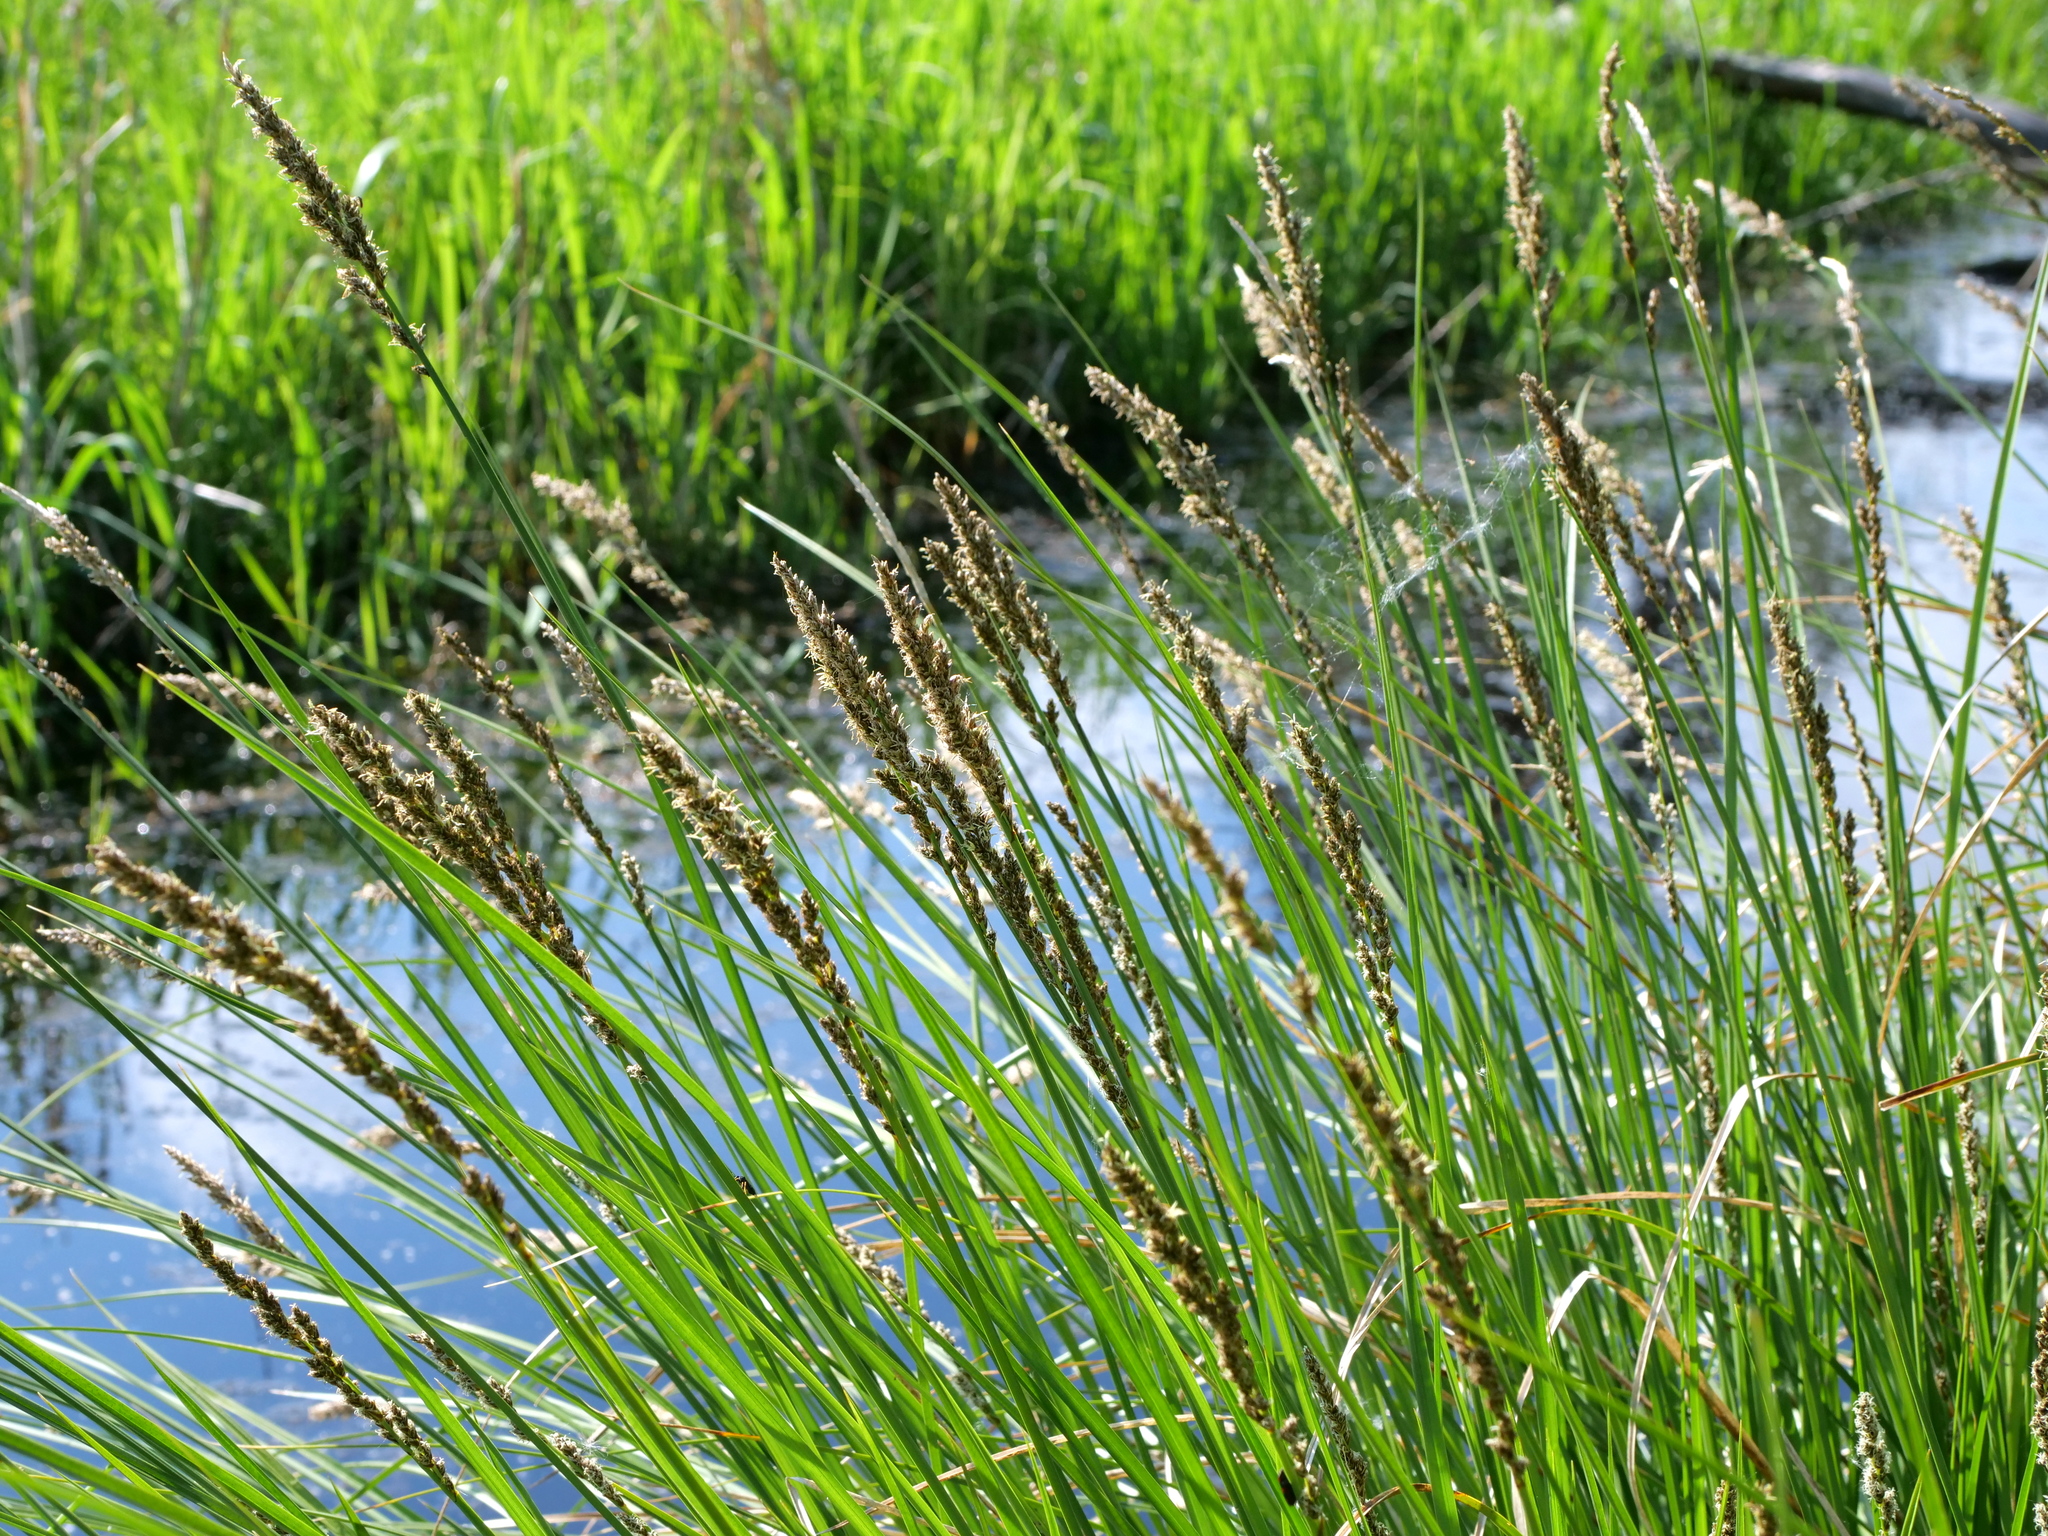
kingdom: Plantae
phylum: Tracheophyta
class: Liliopsida
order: Poales
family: Cyperaceae
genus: Carex
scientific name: Carex paniculata
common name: Greater tussock-sedge
